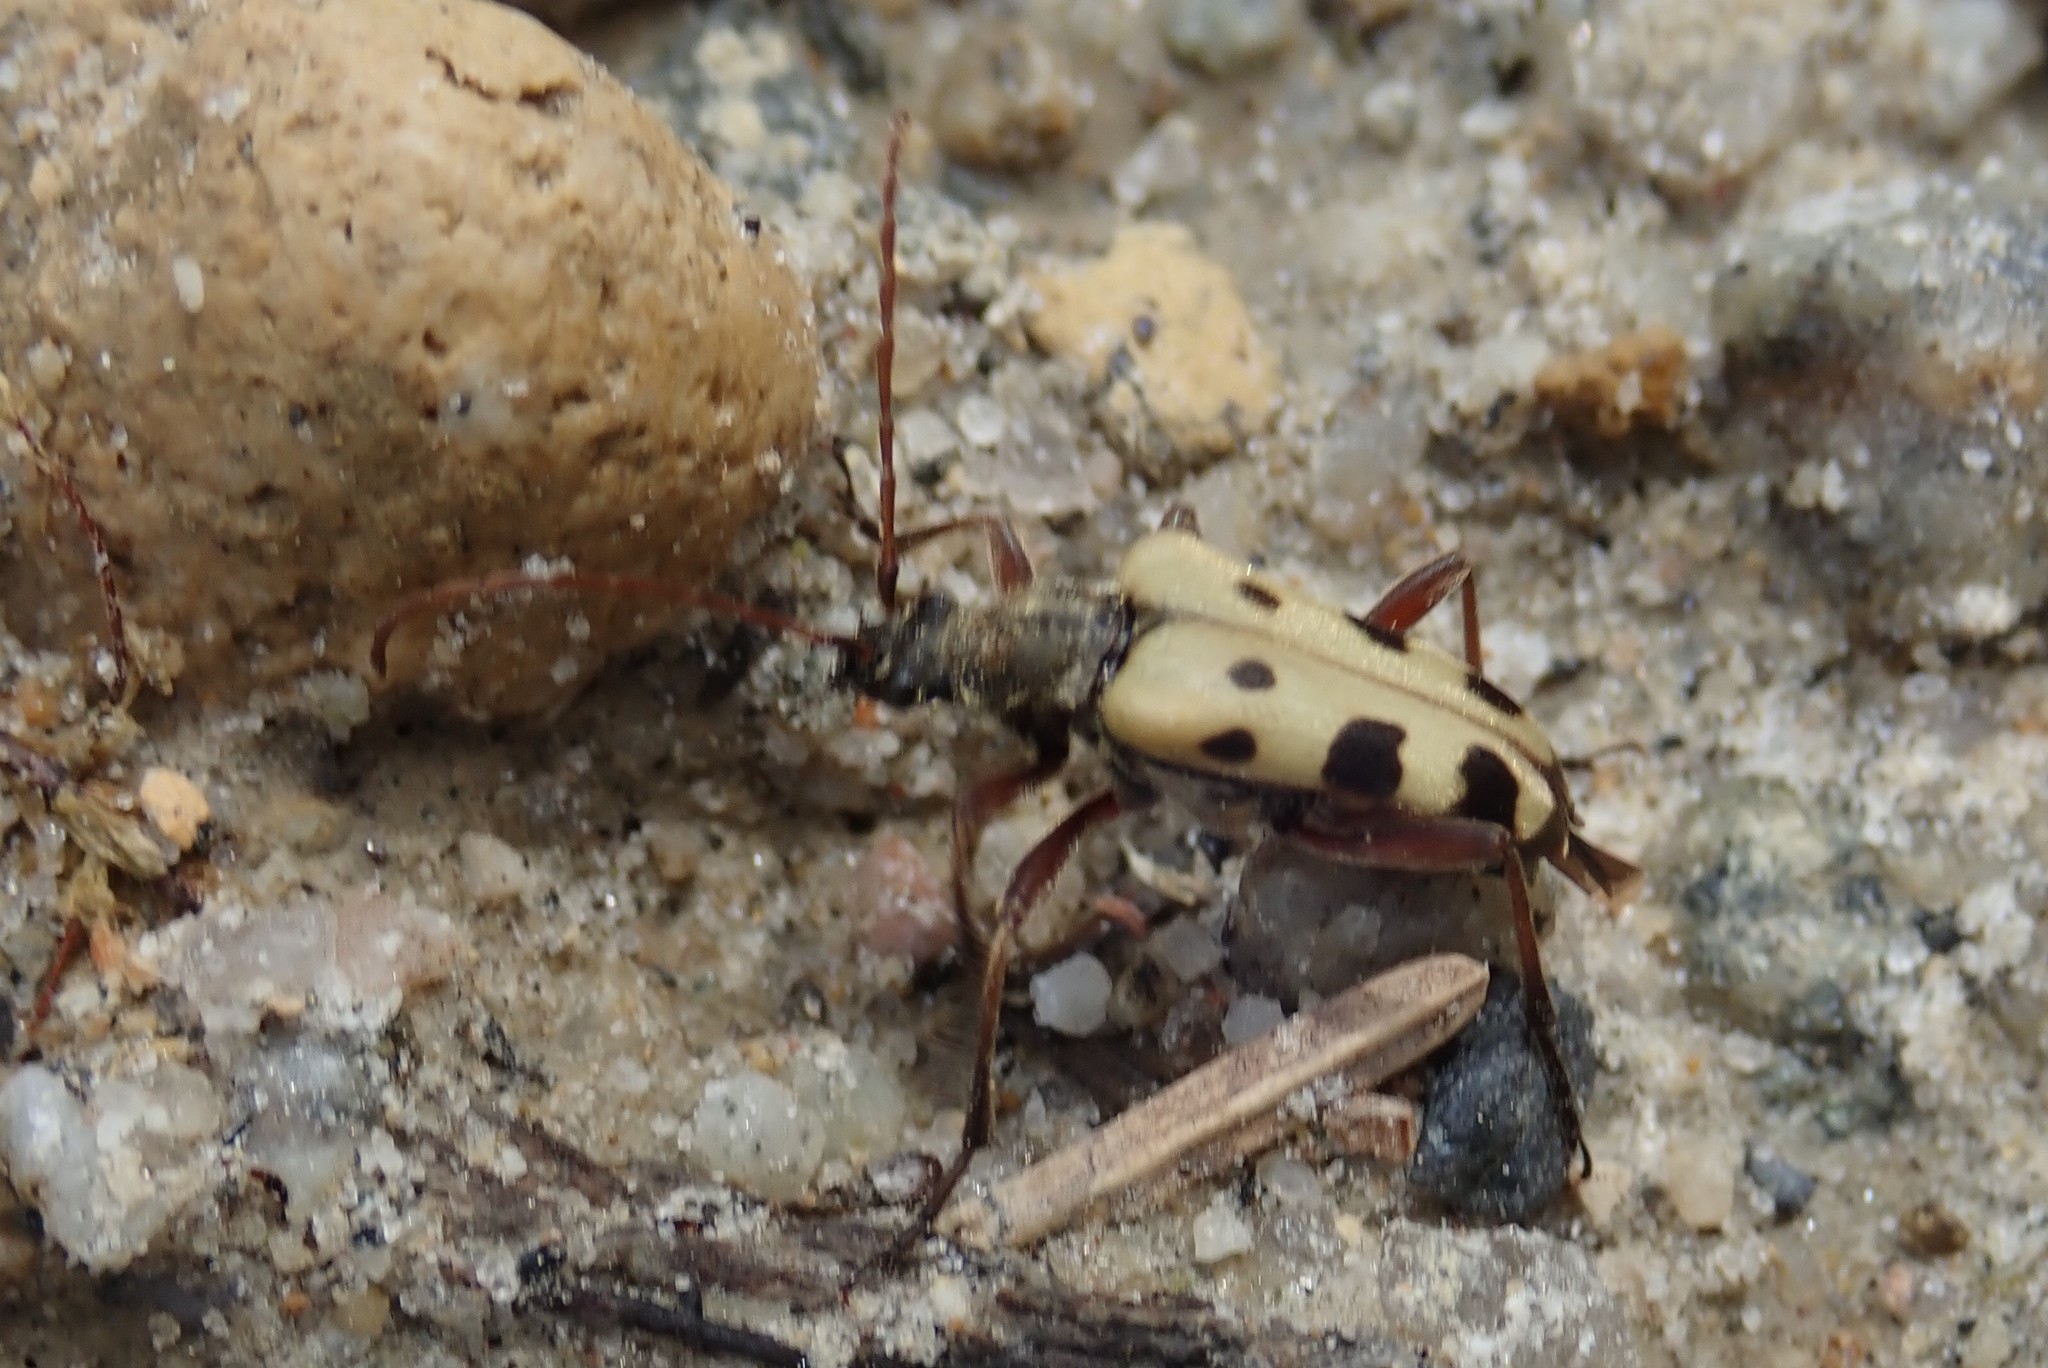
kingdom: Animalia
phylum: Arthropoda
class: Insecta
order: Coleoptera
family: Cerambycidae
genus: Evodinus
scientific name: Evodinus monticola
